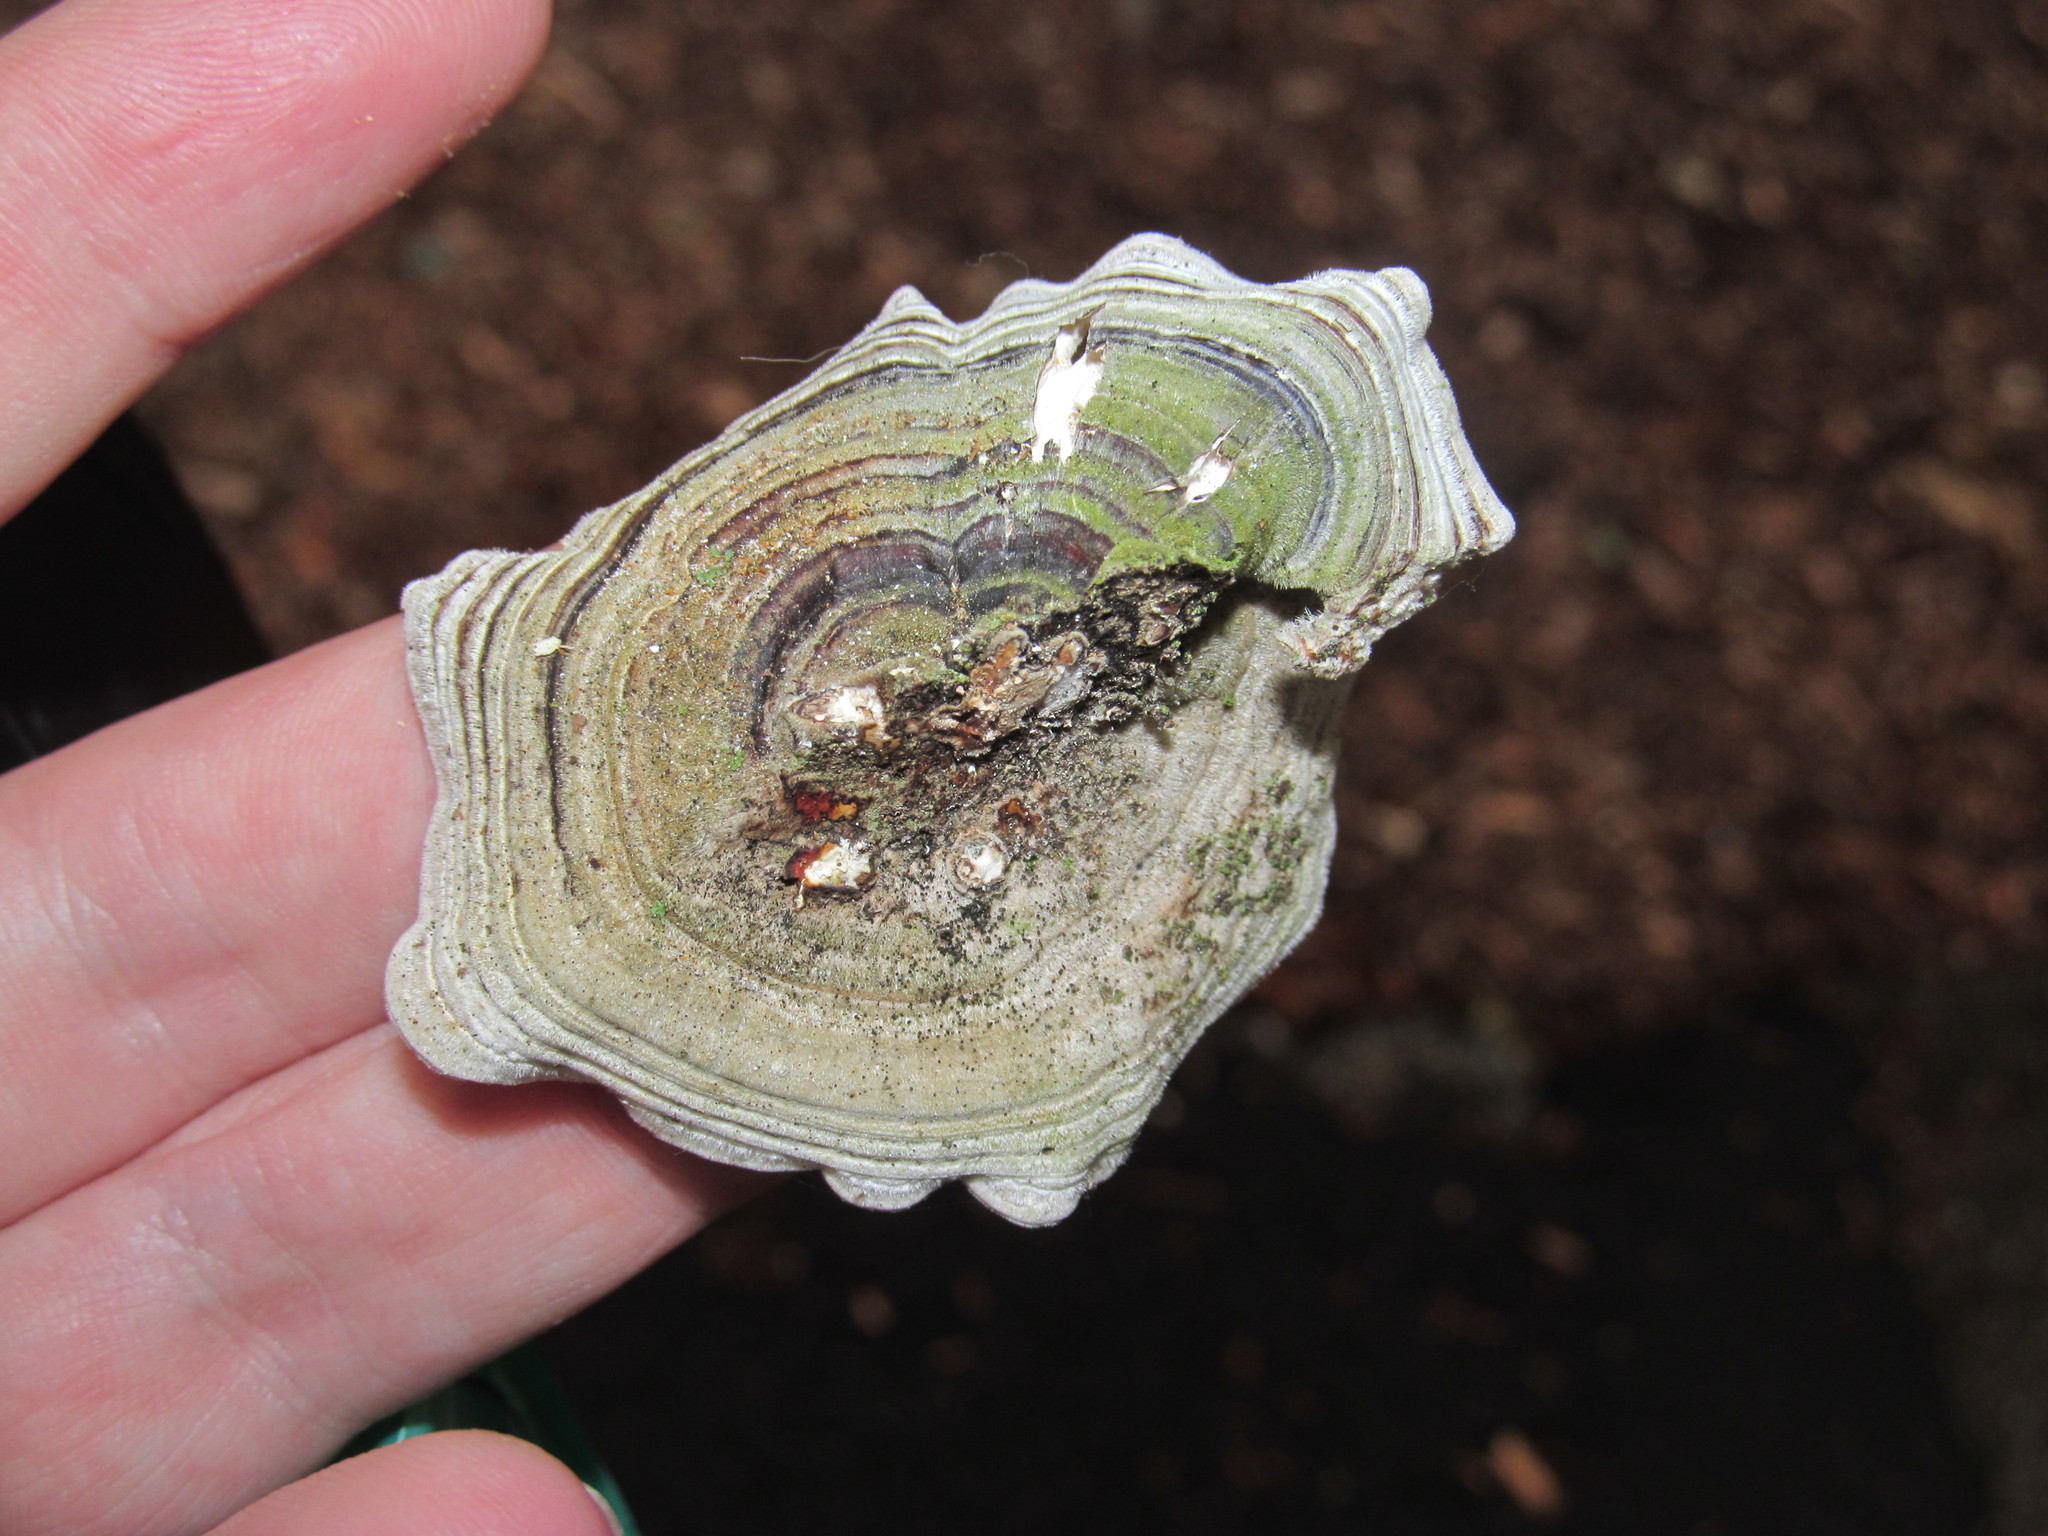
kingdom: Fungi
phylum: Basidiomycota
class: Agaricomycetes
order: Polyporales
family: Polyporaceae
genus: Trametes
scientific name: Trametes versicolor
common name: Turkeytail
